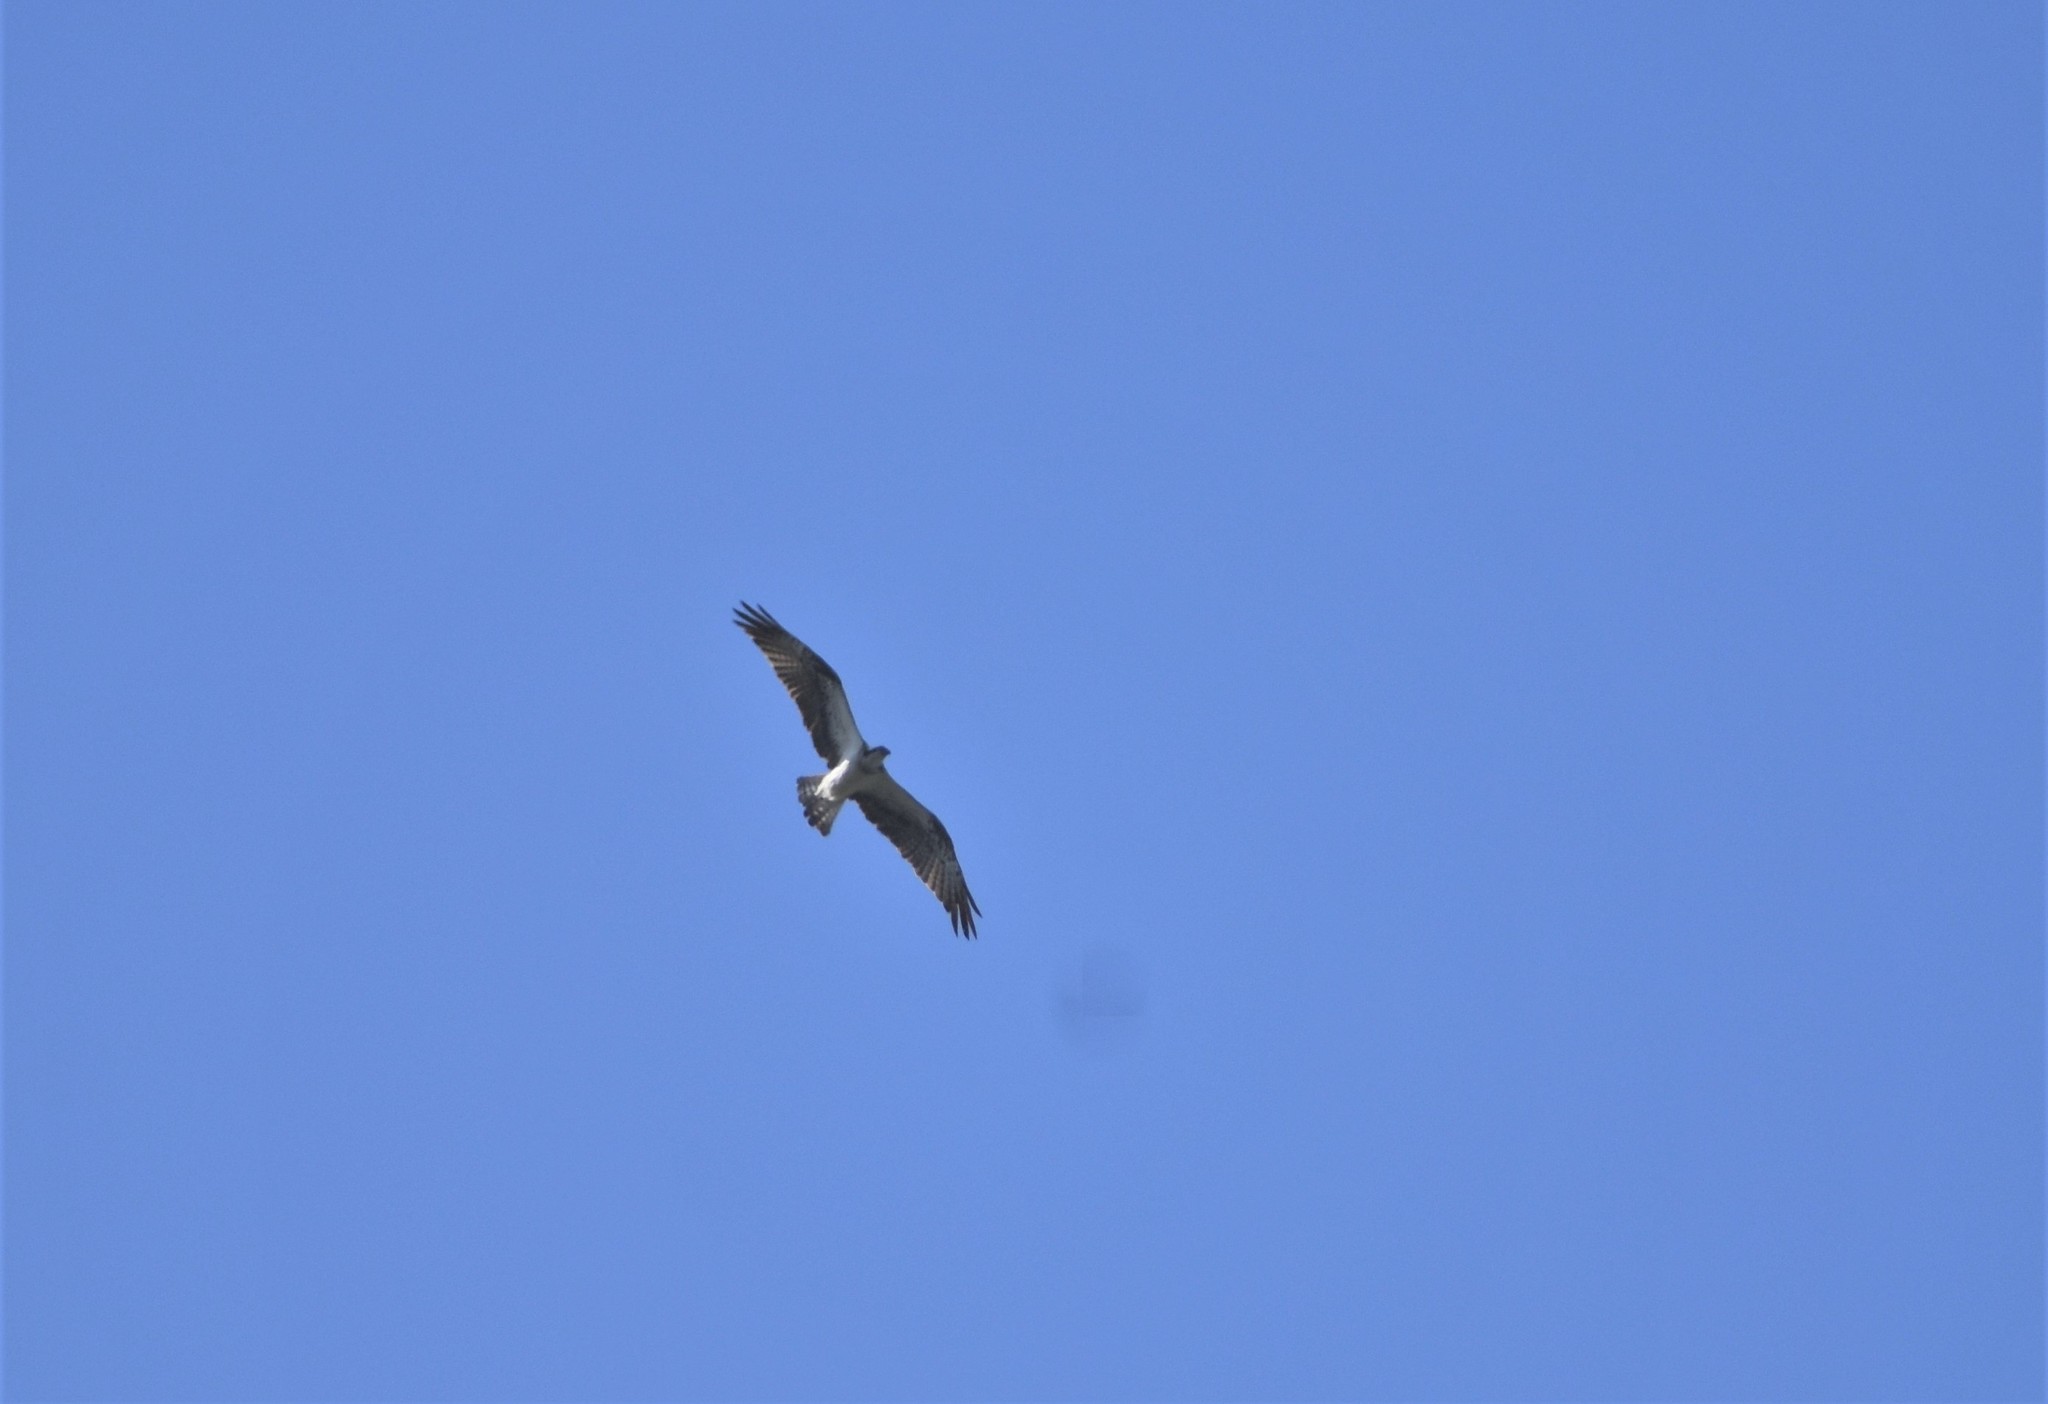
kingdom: Animalia
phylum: Chordata
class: Aves
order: Accipitriformes
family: Pandionidae
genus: Pandion
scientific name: Pandion haliaetus
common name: Osprey
